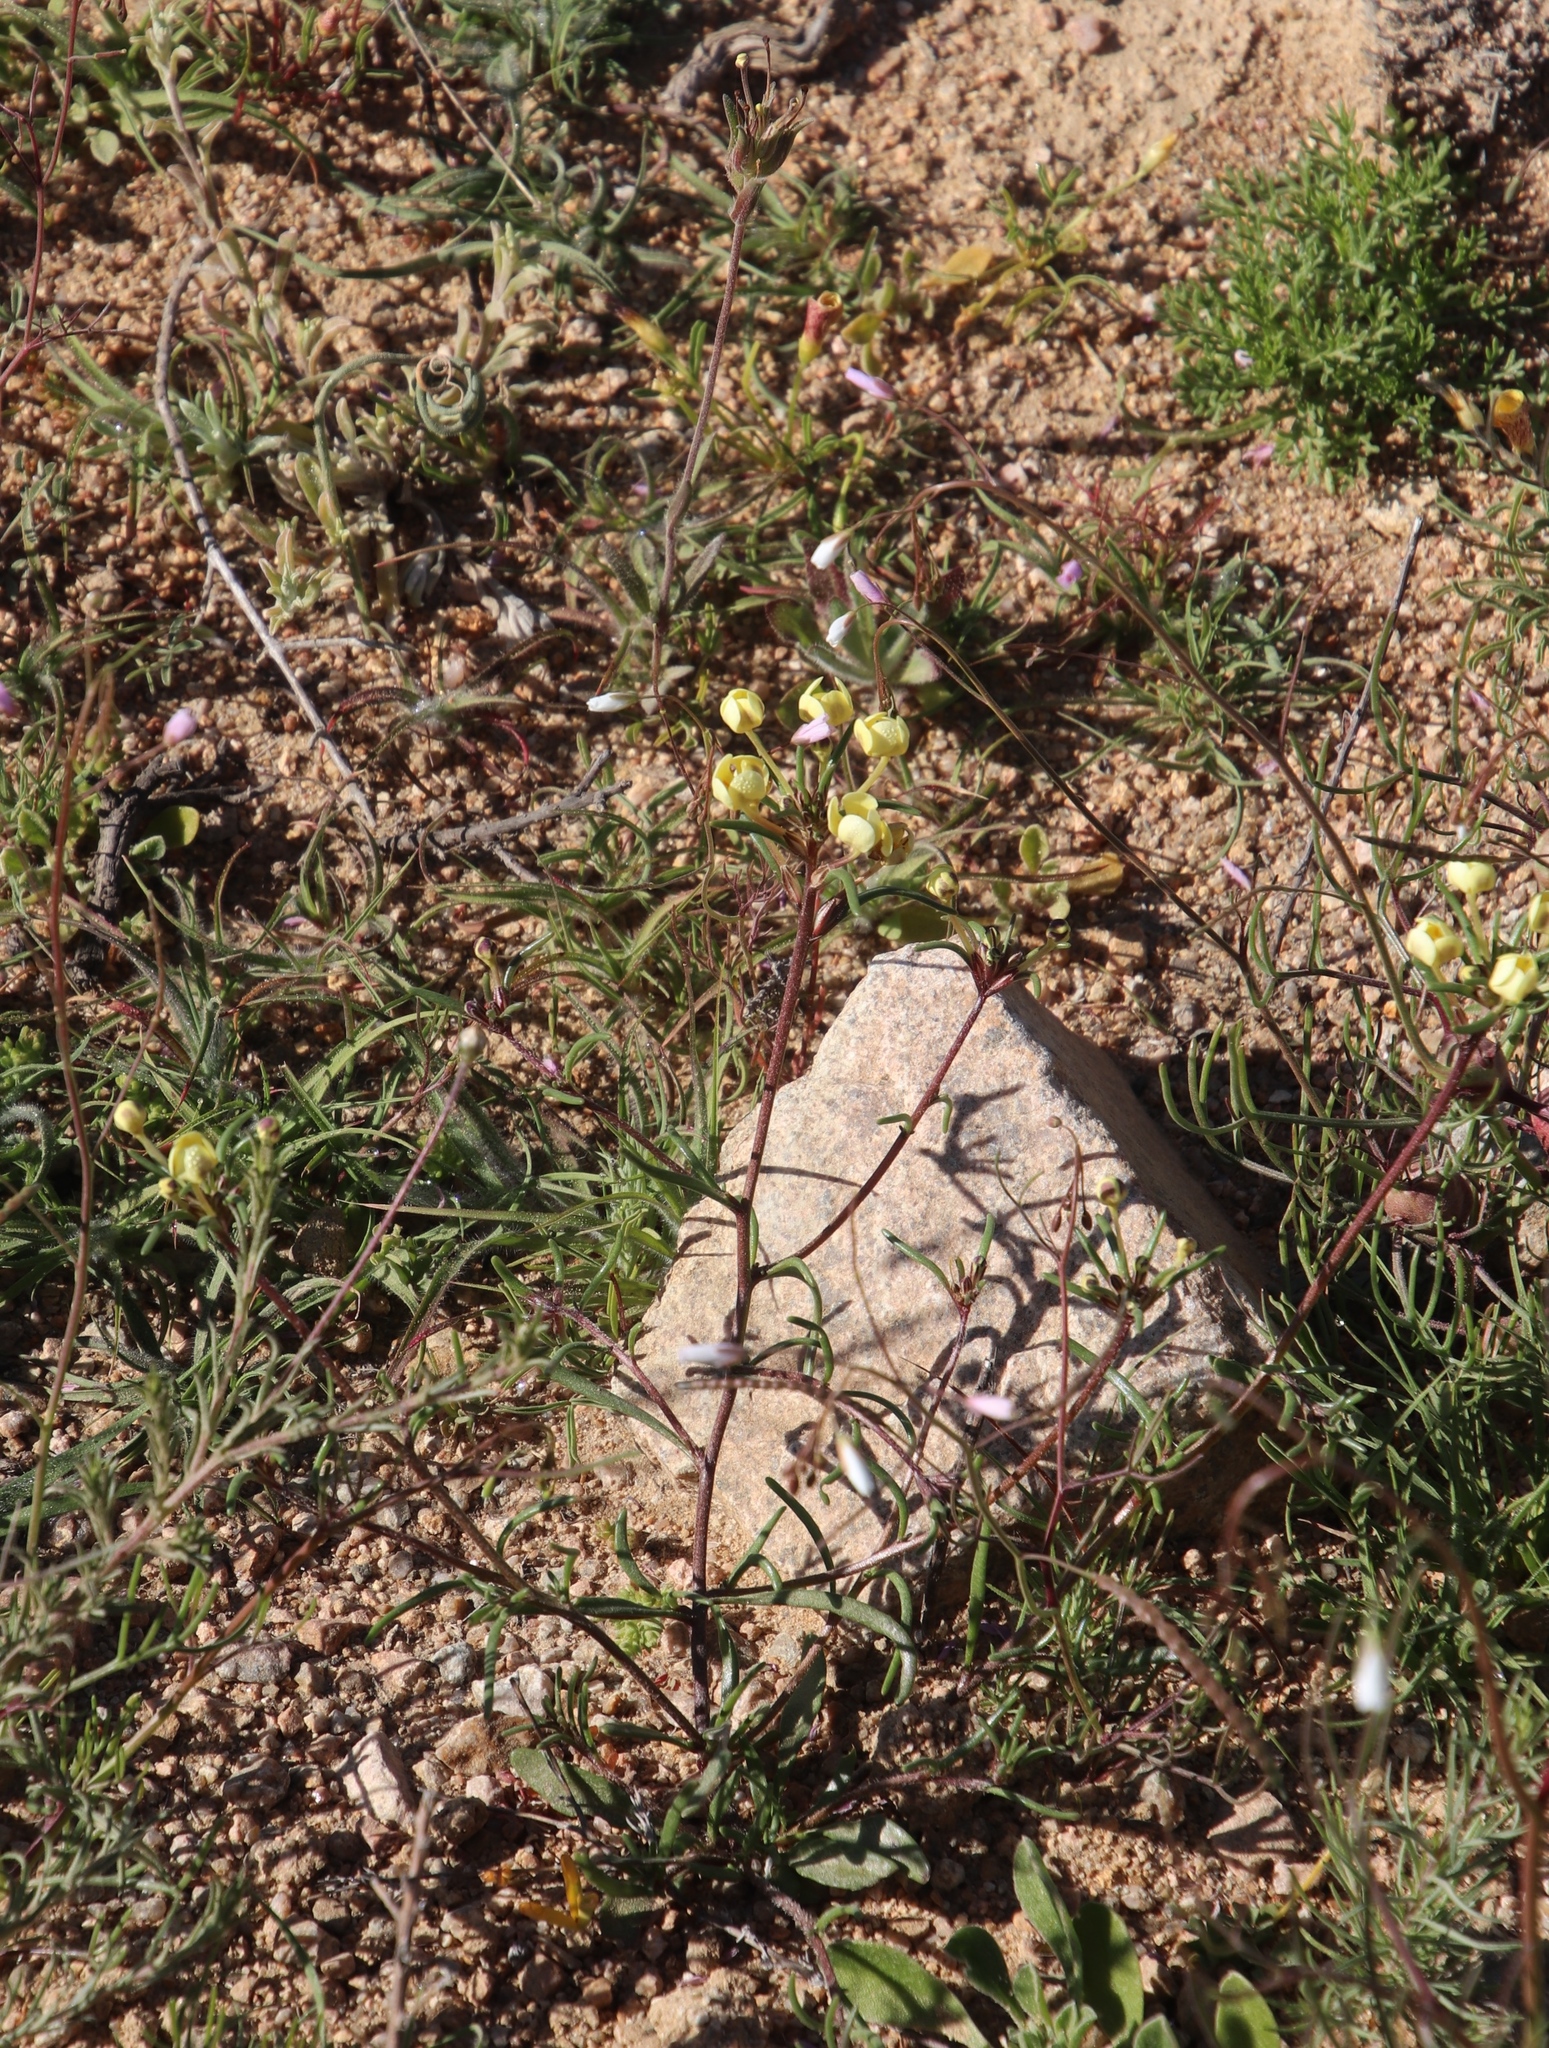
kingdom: Plantae
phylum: Tracheophyta
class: Magnoliopsida
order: Brassicales
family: Brassicaceae
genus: Heliophila
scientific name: Heliophila variabilis
